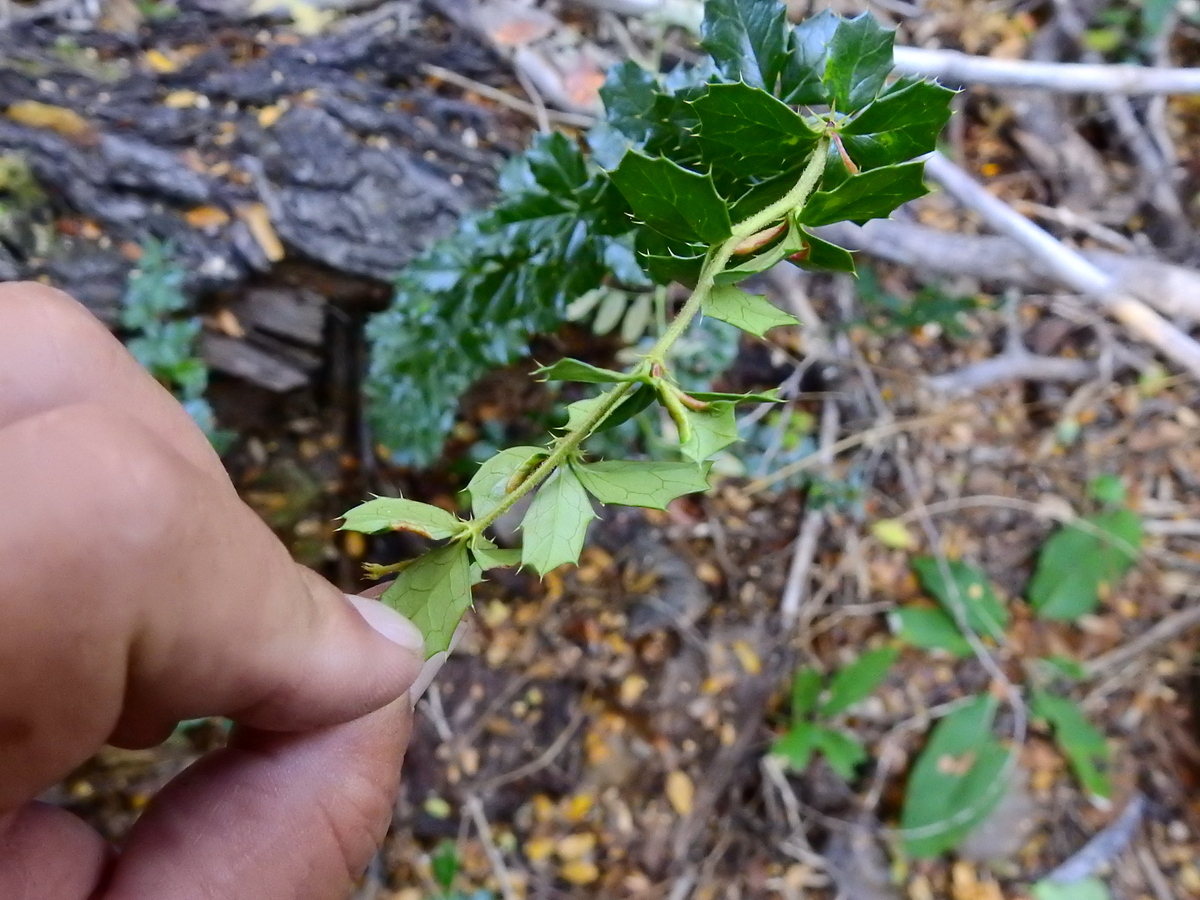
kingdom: Plantae
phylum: Tracheophyta
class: Magnoliopsida
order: Ranunculales
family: Berberidaceae
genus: Berberis
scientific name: Berberis darwinii
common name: Darwin's barberry
